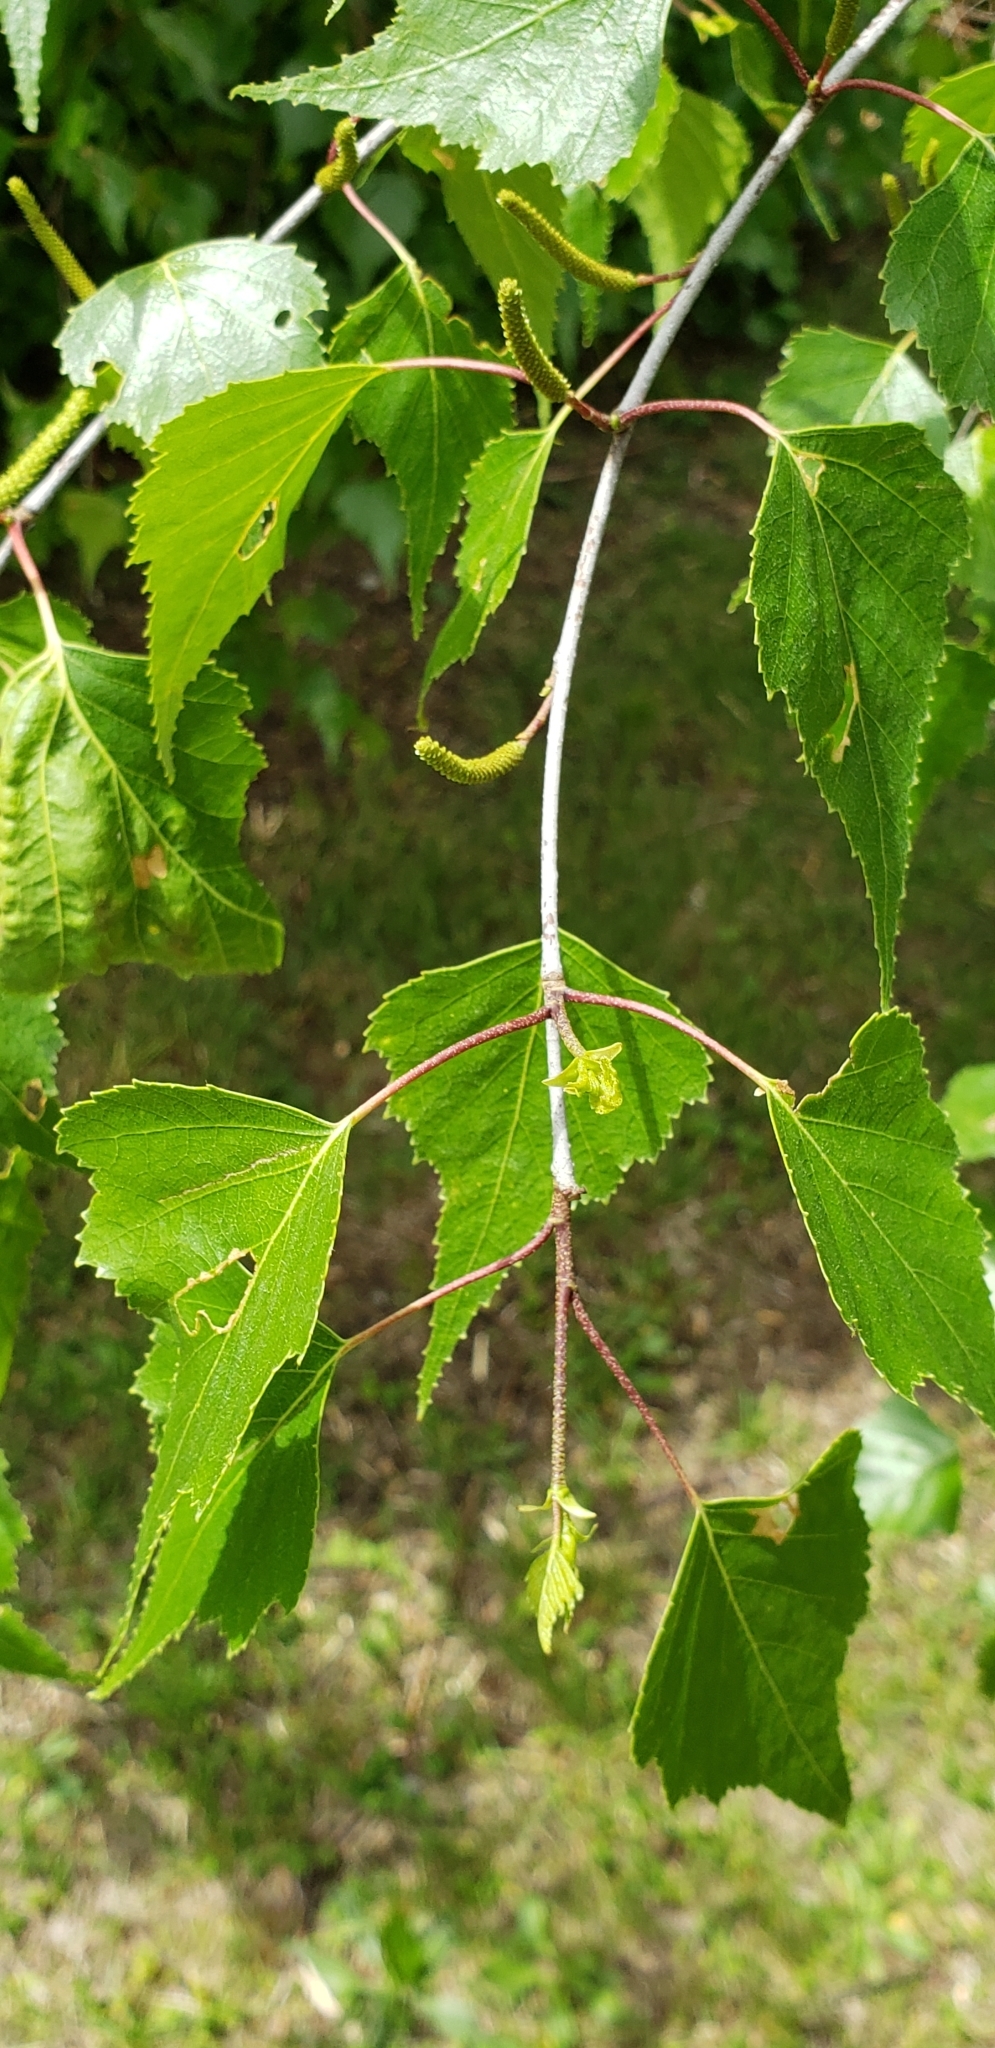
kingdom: Plantae
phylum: Tracheophyta
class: Magnoliopsida
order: Fagales
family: Betulaceae
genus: Betula
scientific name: Betula populifolia
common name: Fire birch
